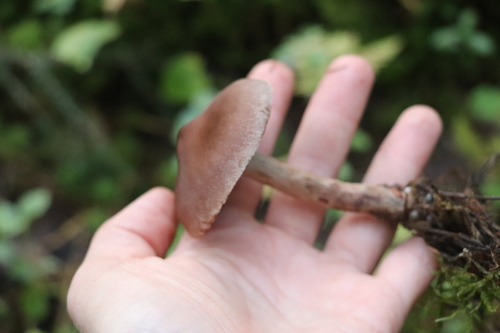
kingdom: Fungi
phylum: Basidiomycota
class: Agaricomycetes
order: Agaricales
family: Cortinariaceae
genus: Cortinarius
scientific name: Cortinarius brunneus
